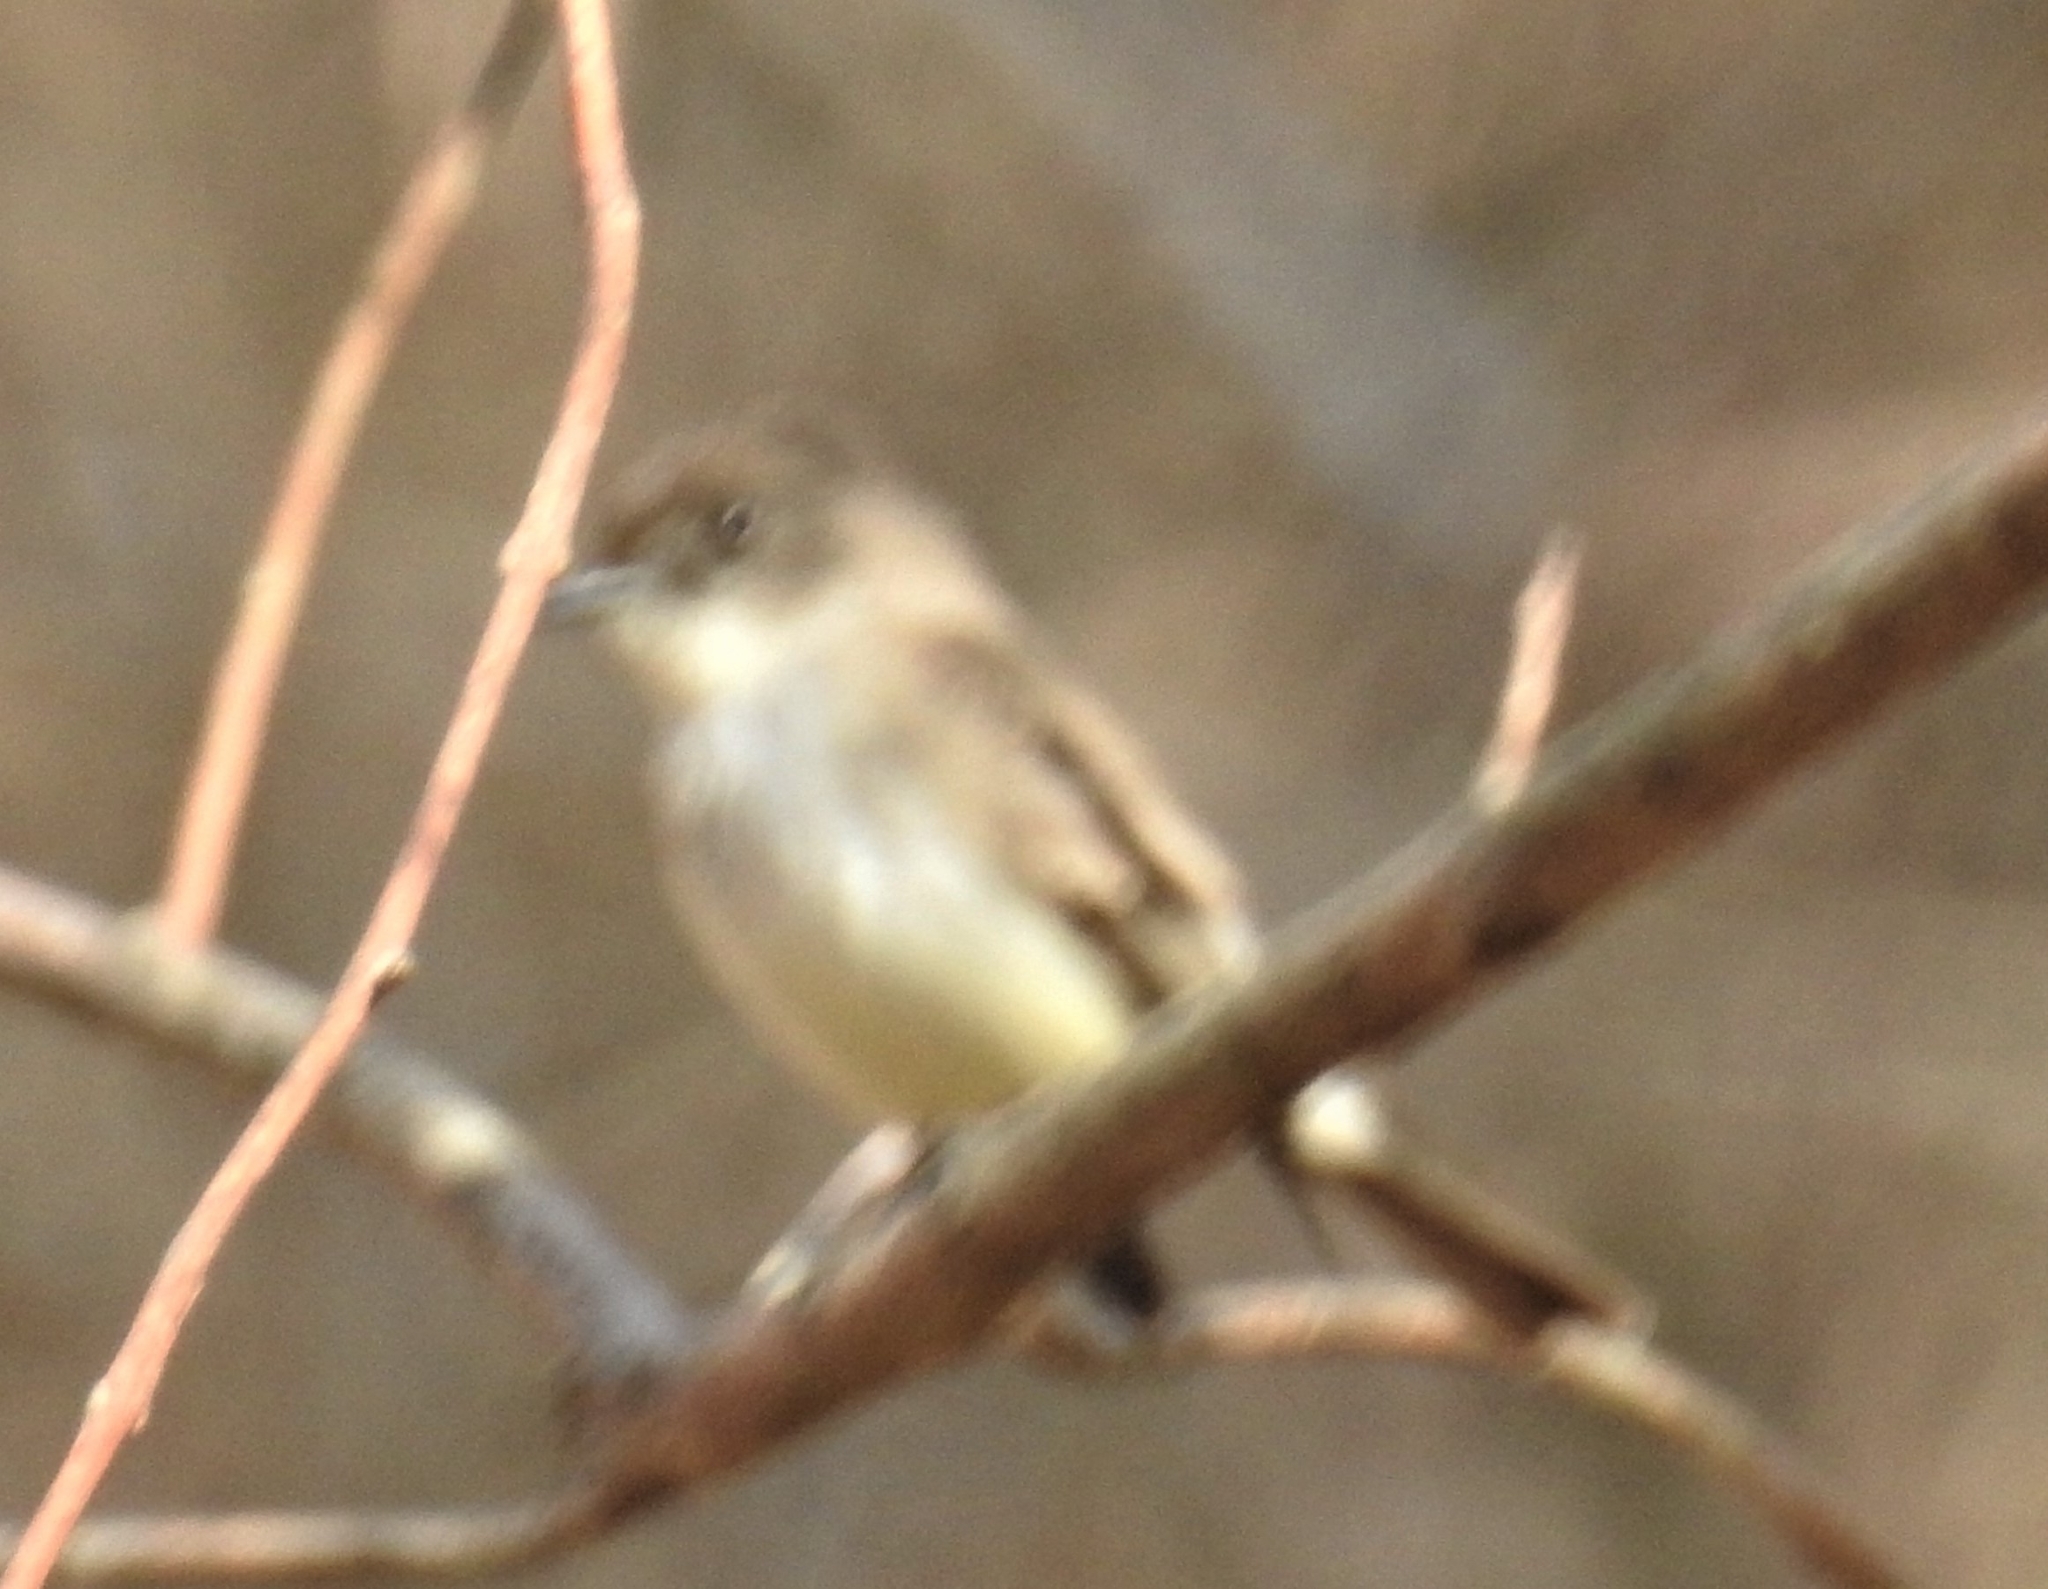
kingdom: Animalia
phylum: Chordata
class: Aves
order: Passeriformes
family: Tyrannidae
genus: Sayornis
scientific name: Sayornis phoebe
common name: Eastern phoebe
